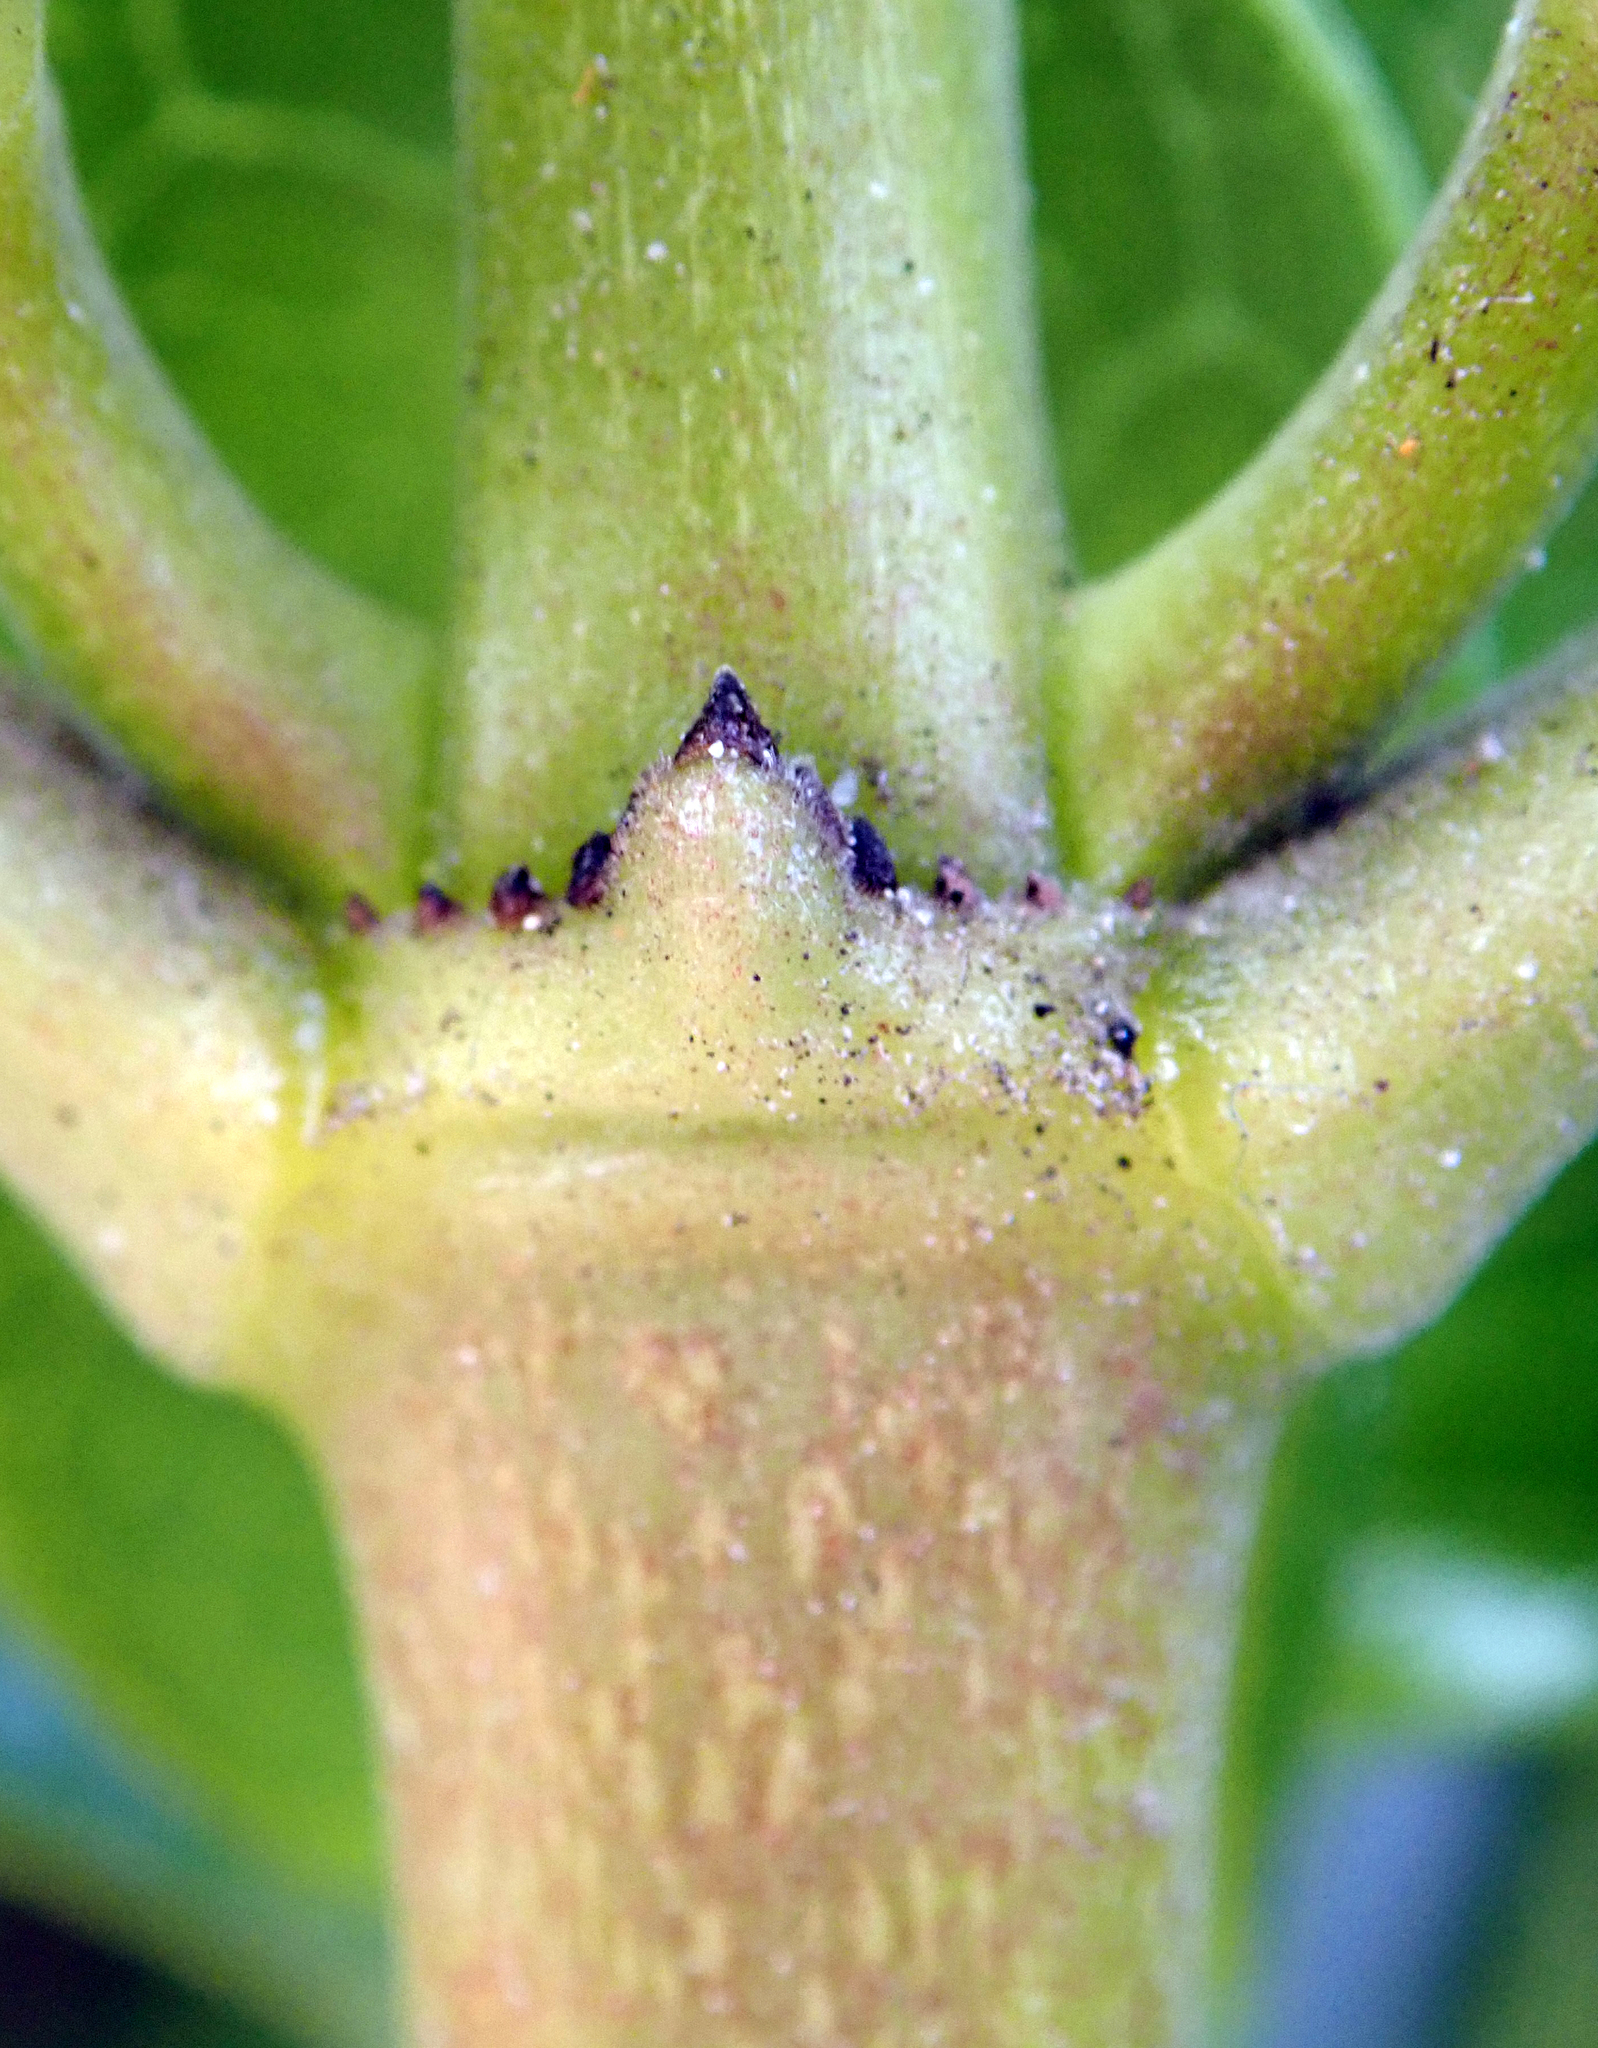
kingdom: Plantae
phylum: Tracheophyta
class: Magnoliopsida
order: Gentianales
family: Rubiaceae
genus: Coprosma
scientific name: Coprosma repens
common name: Tree bedstraw
